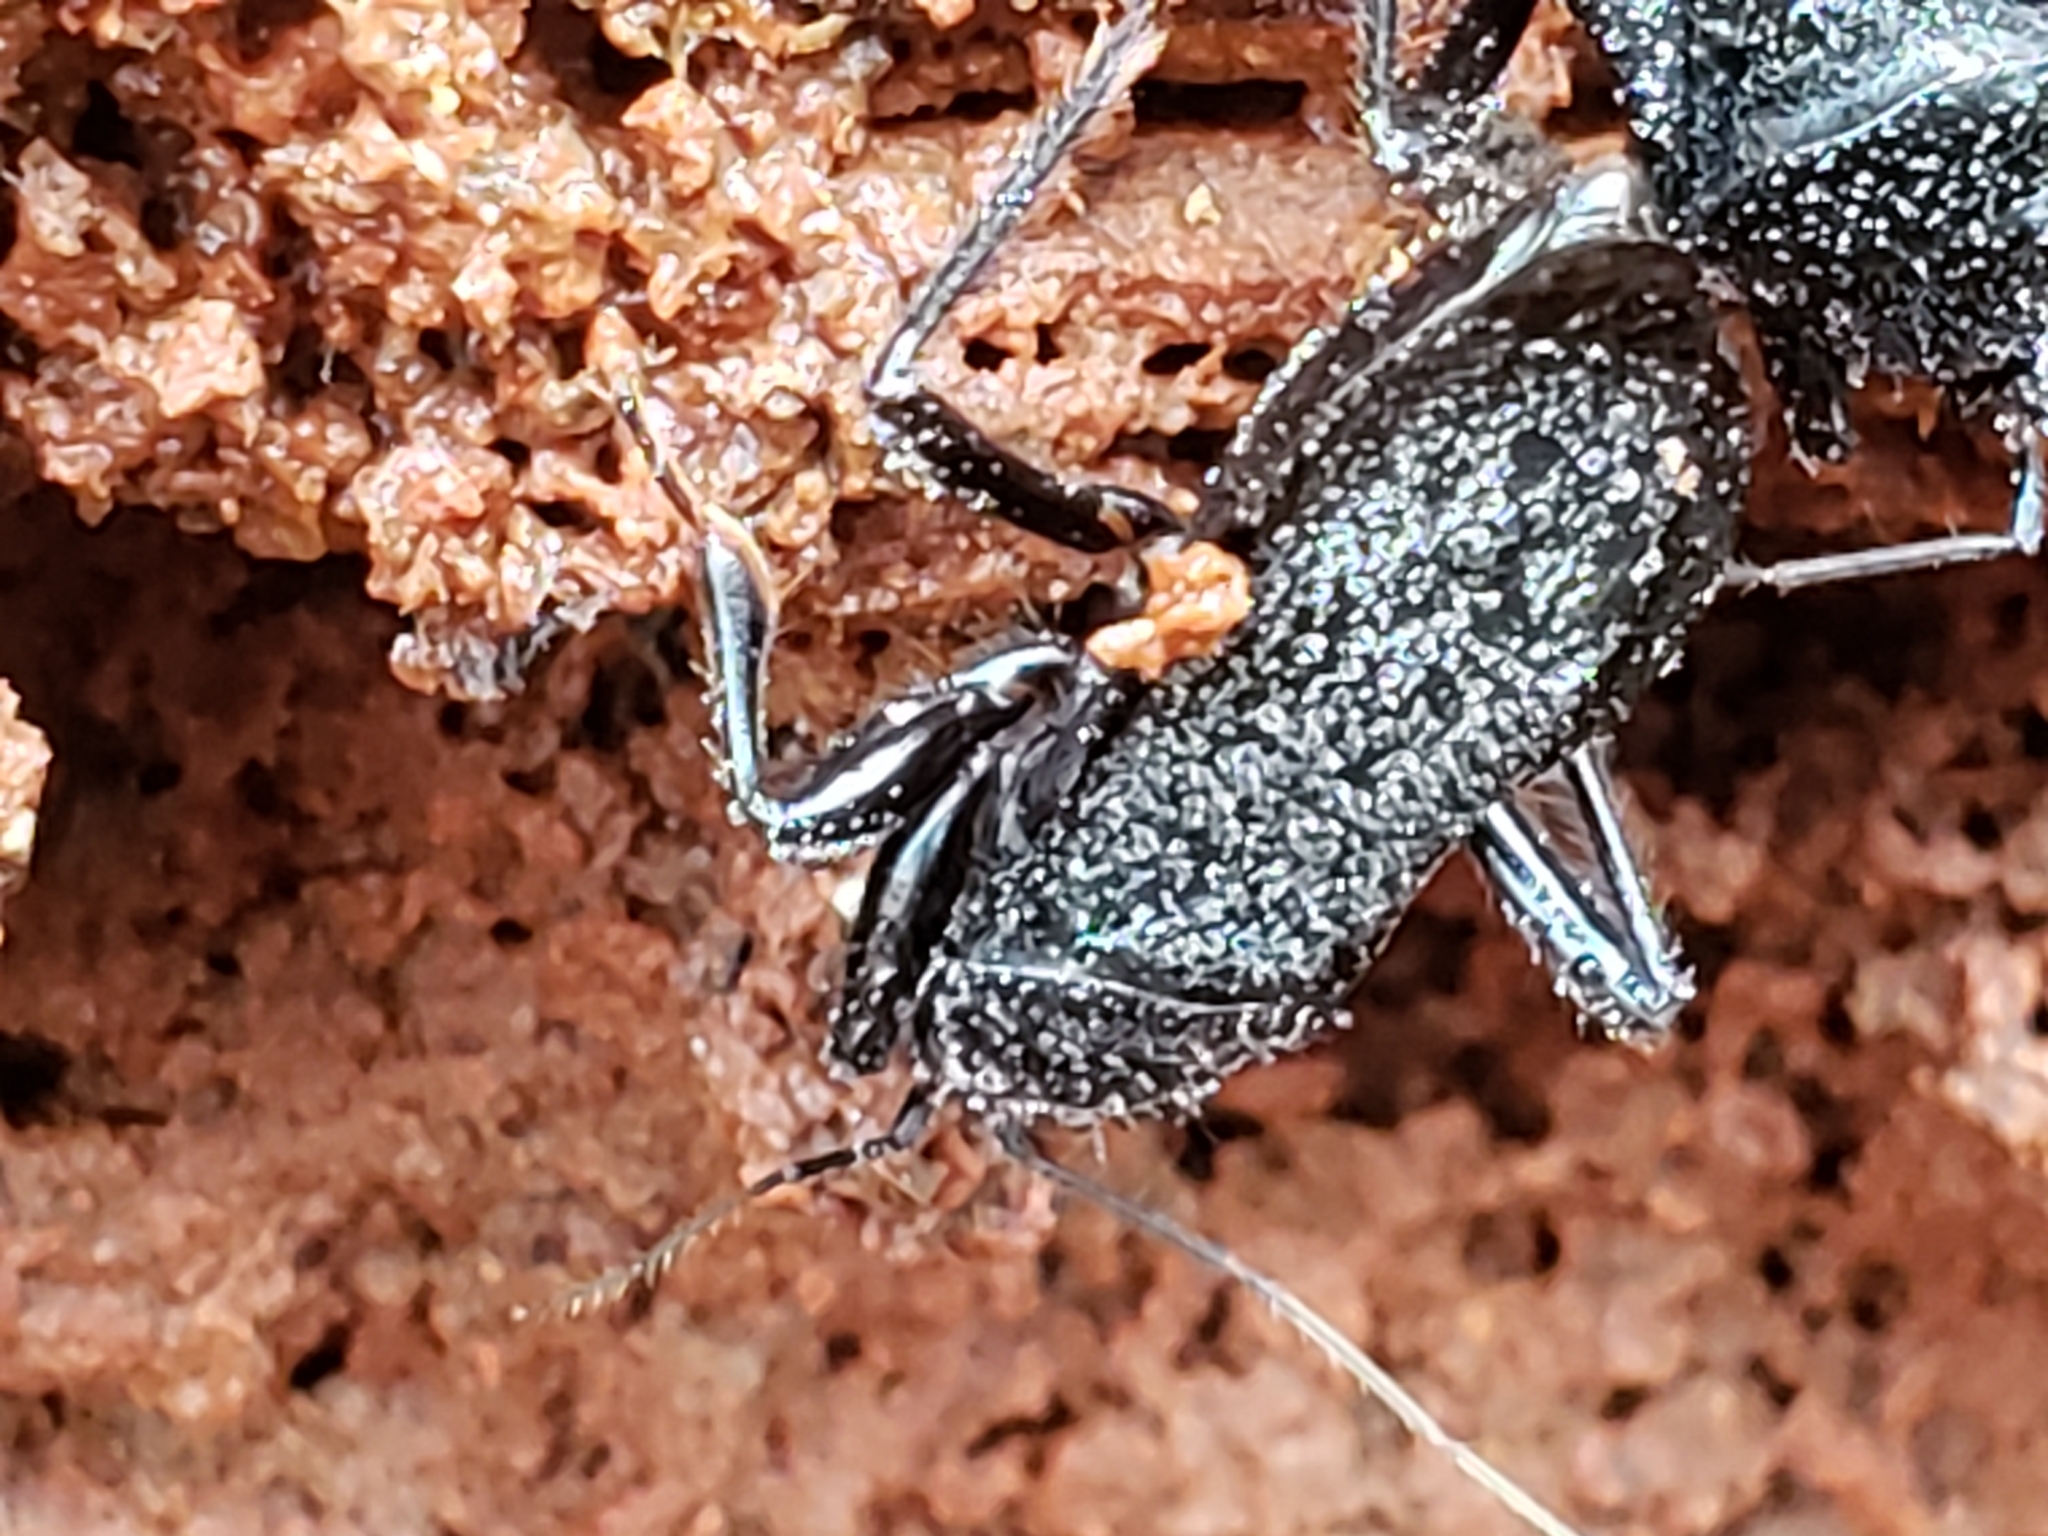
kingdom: Animalia
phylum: Arthropoda
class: Insecta
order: Hemiptera
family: Reduviidae
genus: Melanolestes
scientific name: Melanolestes picipes
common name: Assassin bug
